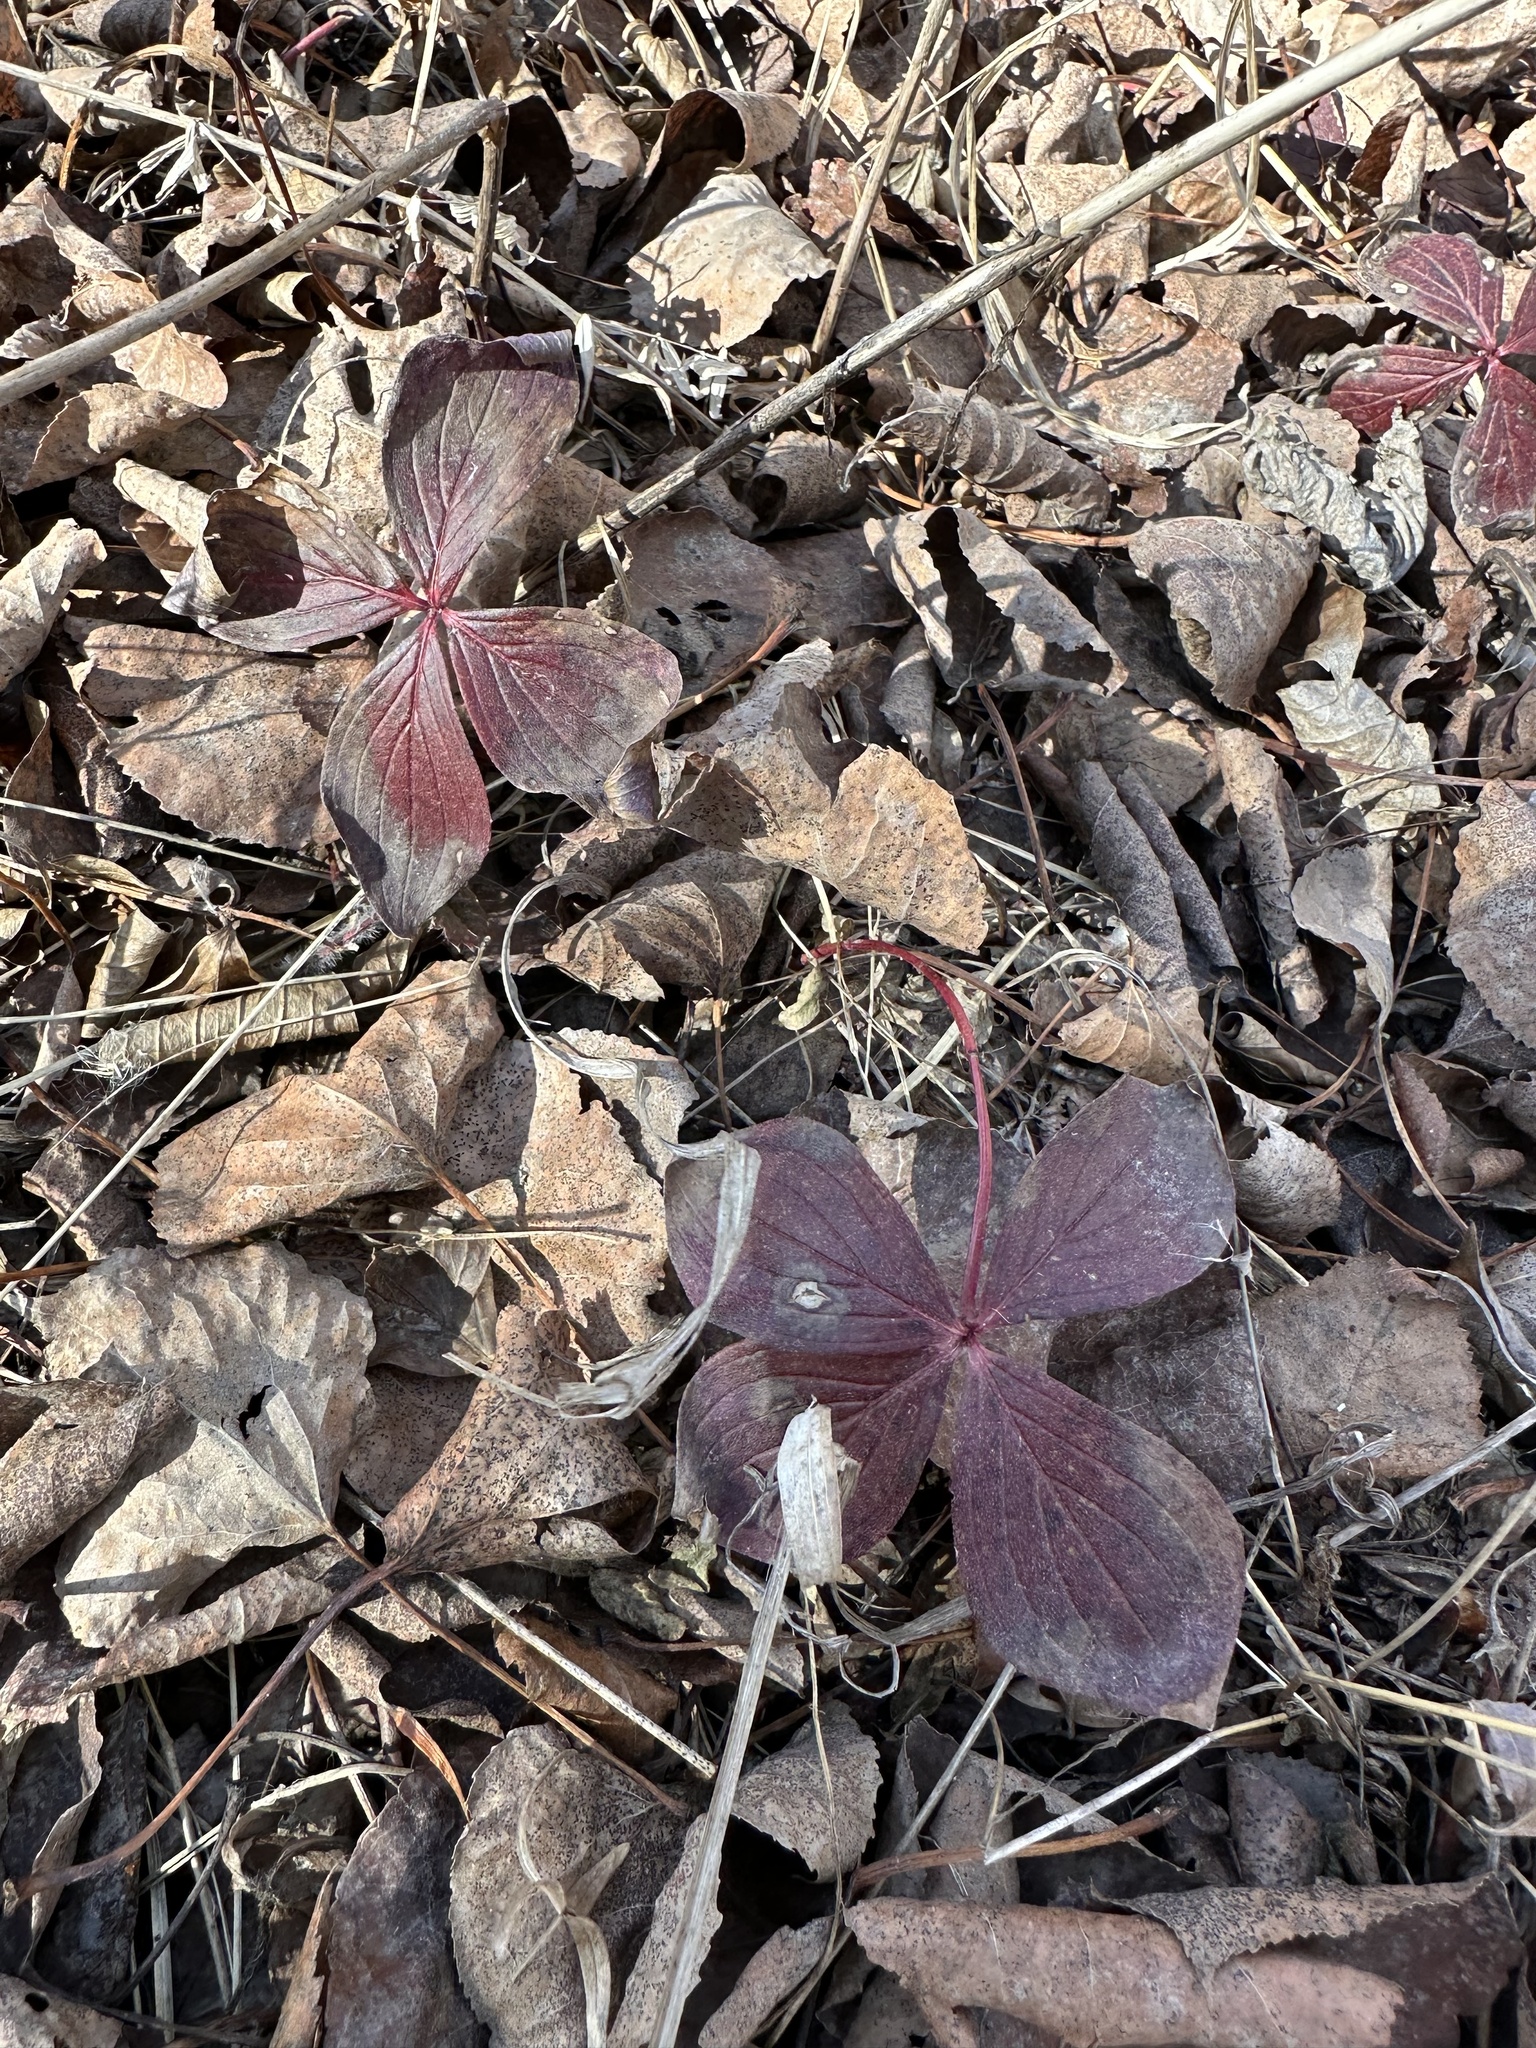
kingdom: Plantae
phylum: Tracheophyta
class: Magnoliopsida
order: Cornales
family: Cornaceae
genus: Cornus
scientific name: Cornus canadensis
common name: Creeping dogwood
